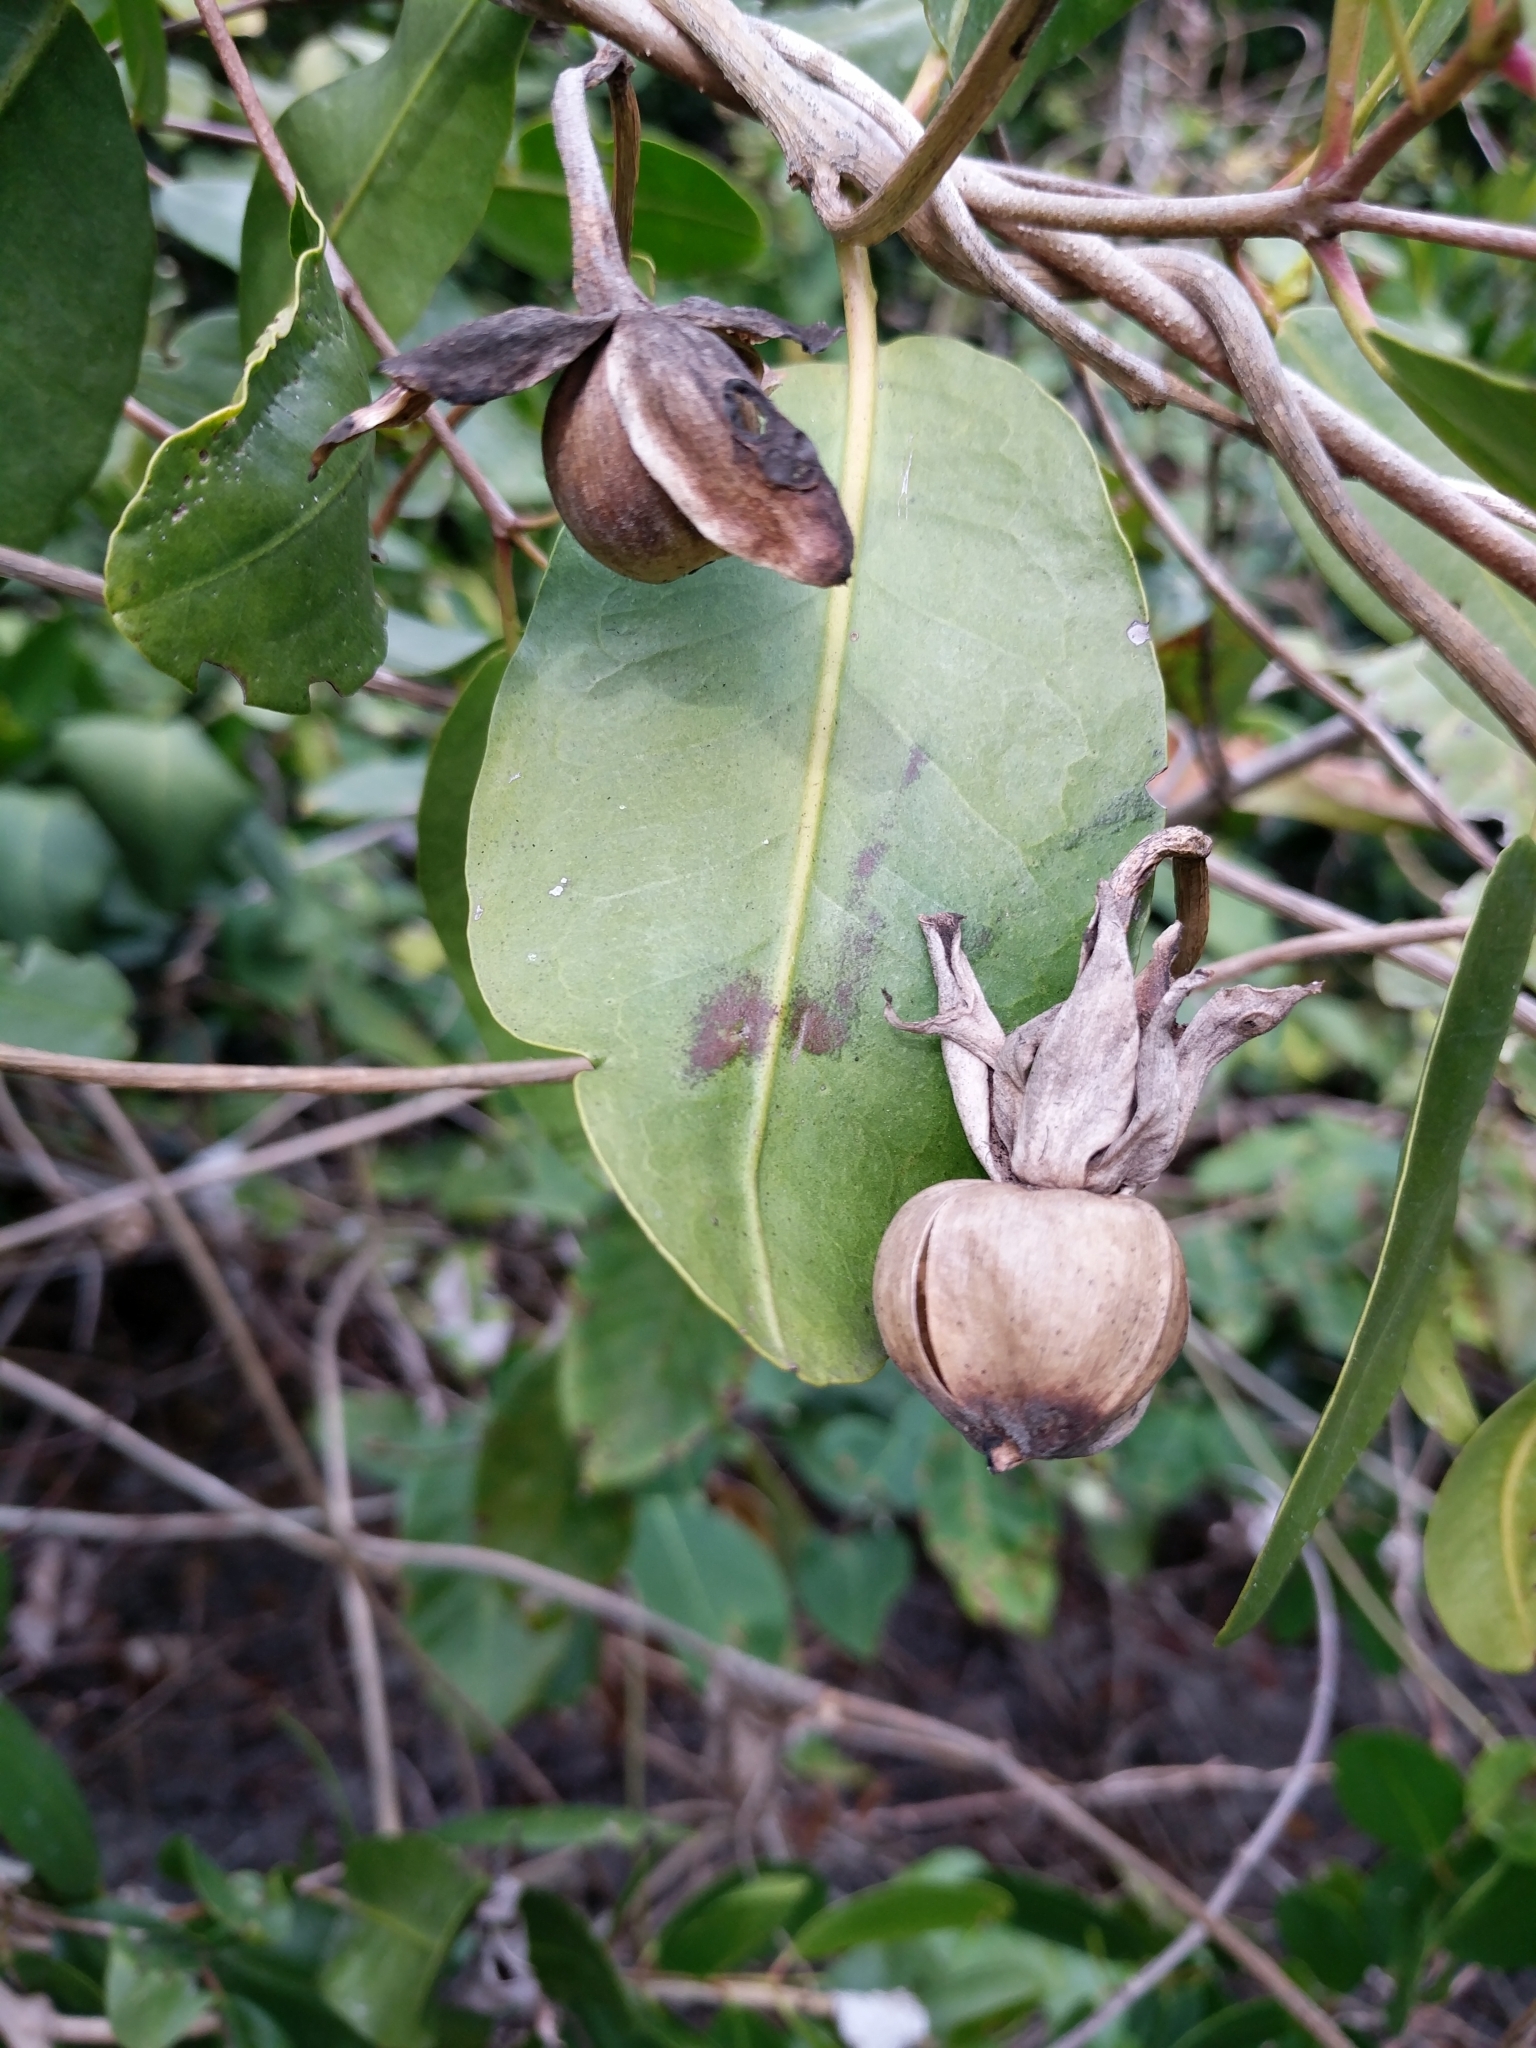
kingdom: Plantae
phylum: Tracheophyta
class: Magnoliopsida
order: Solanales
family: Convolvulaceae
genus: Ipomoea
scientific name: Ipomoea violacea
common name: Beach moonflower
